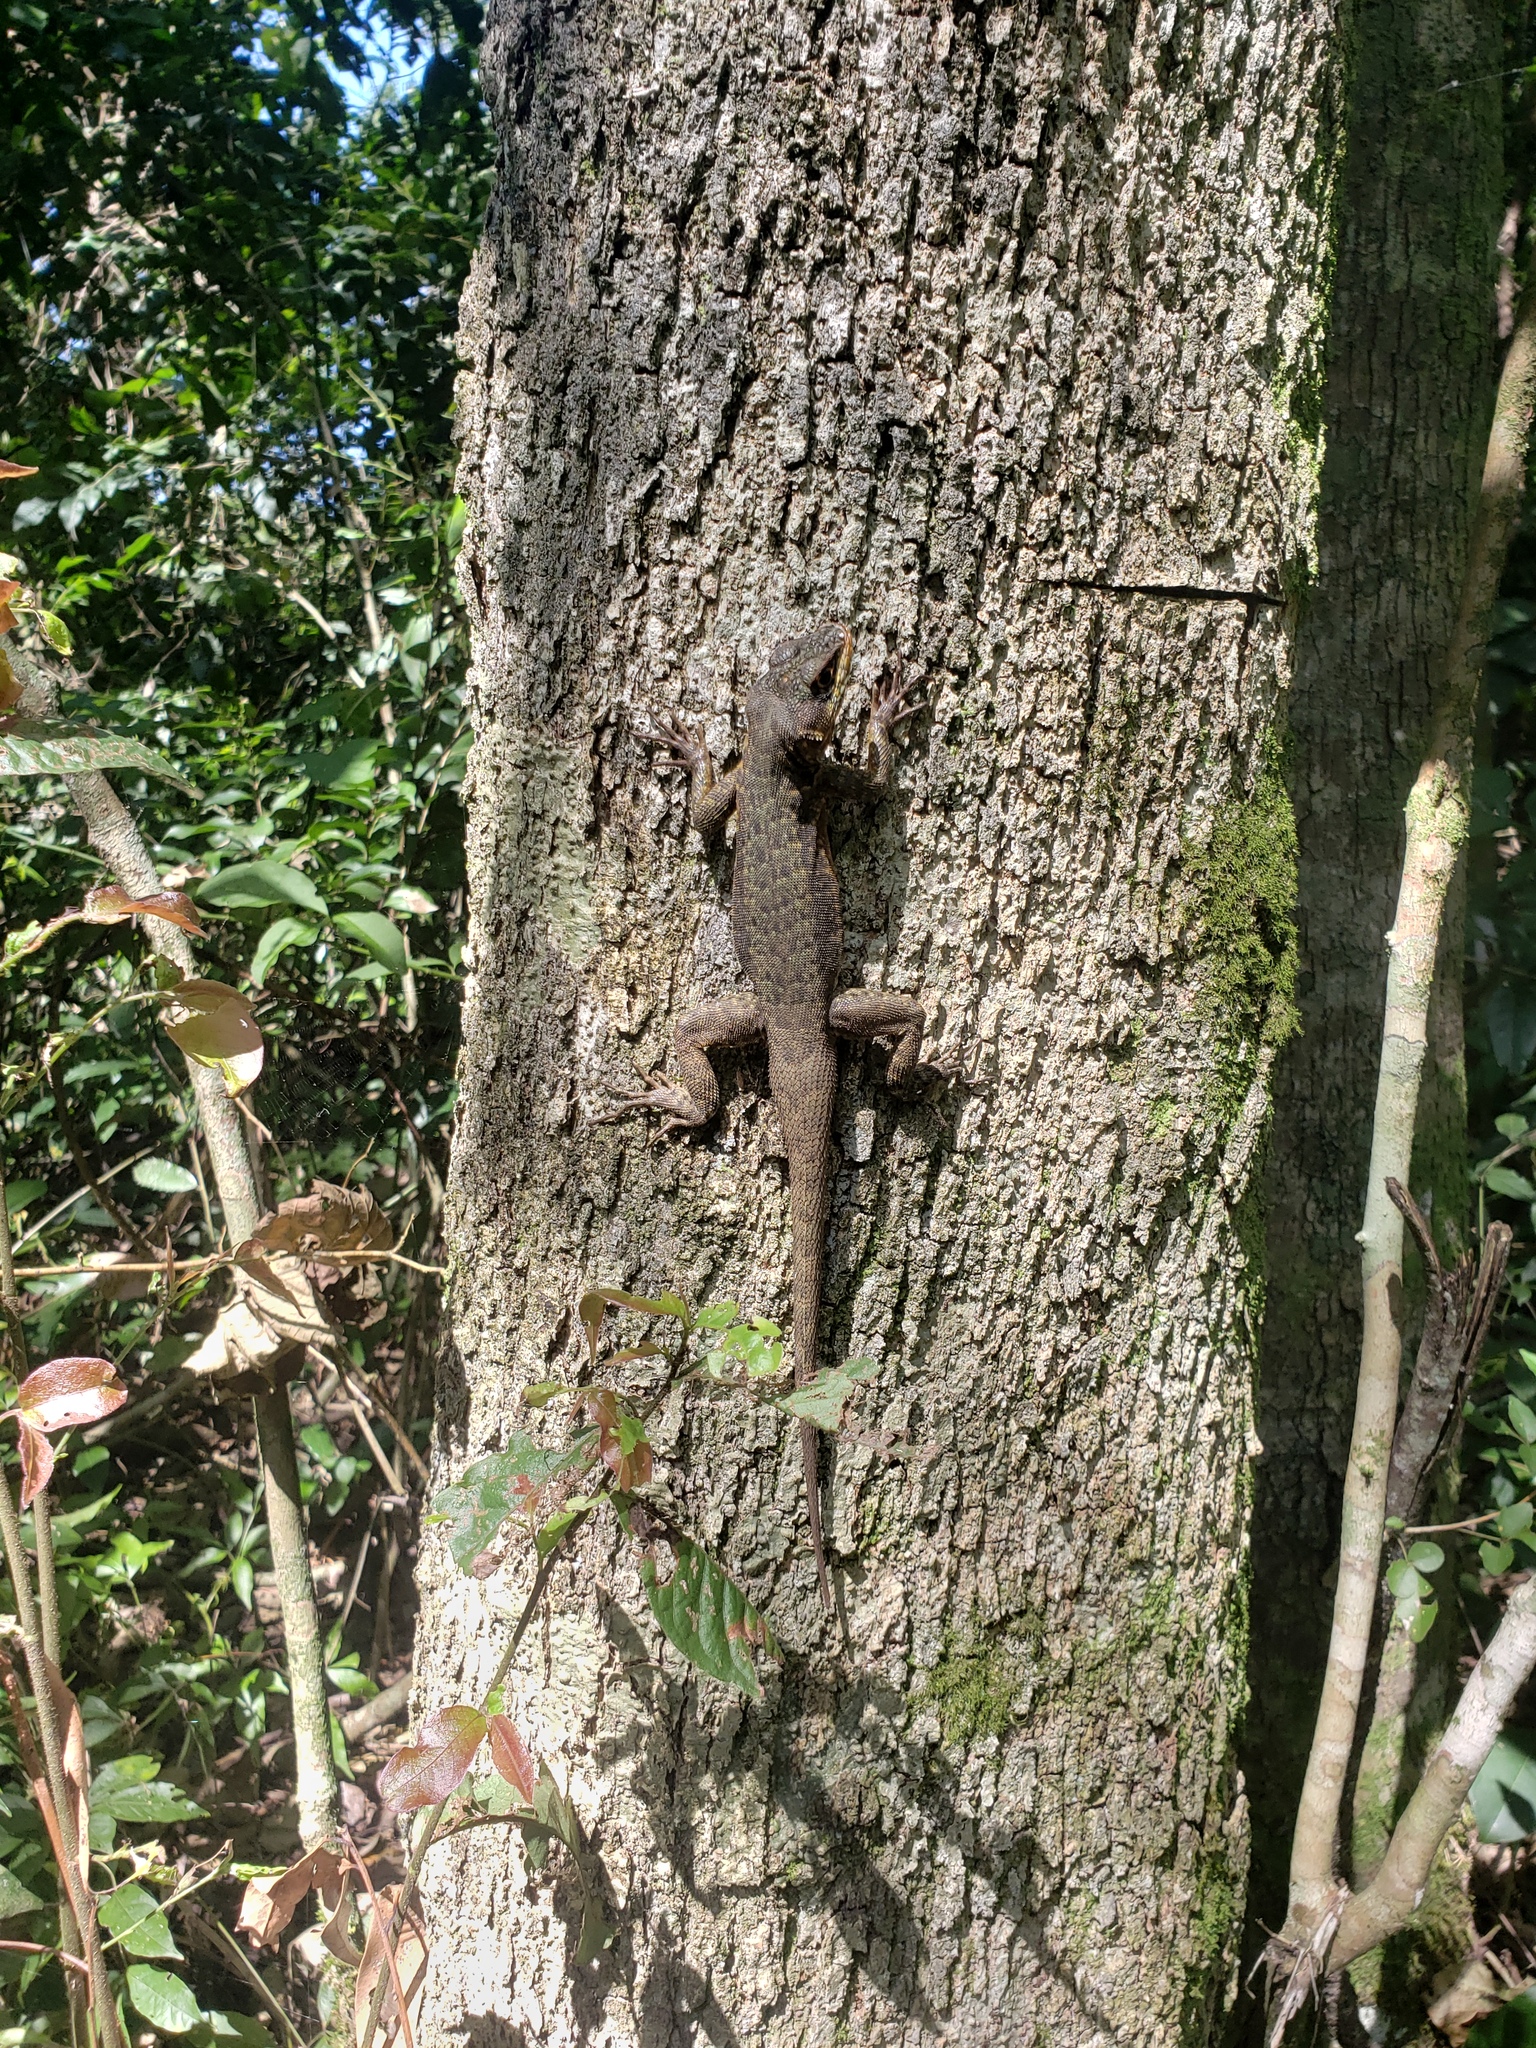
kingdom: Animalia
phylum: Chordata
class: Squamata
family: Tropiduridae
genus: Tropidurus
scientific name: Tropidurus catalanensis
